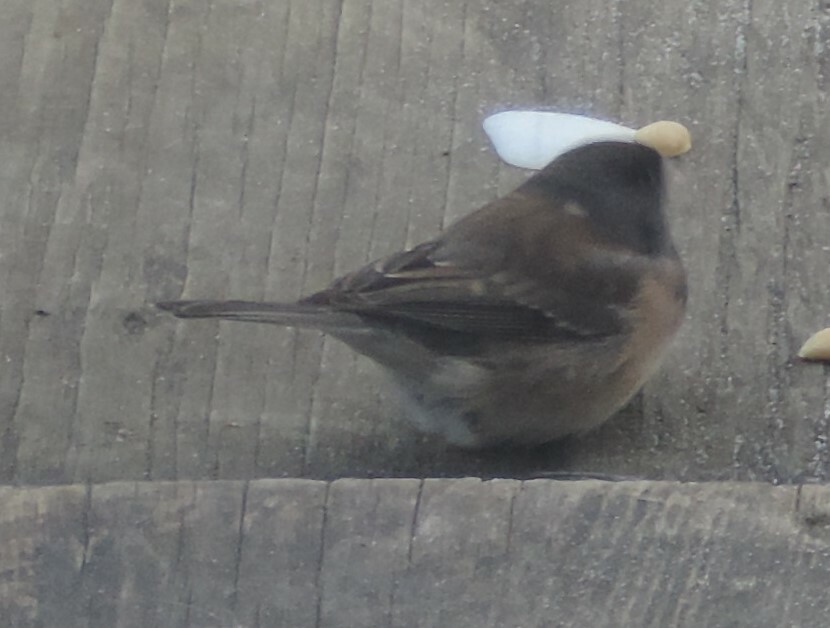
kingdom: Animalia
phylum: Chordata
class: Aves
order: Passeriformes
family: Passerellidae
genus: Junco
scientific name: Junco hyemalis
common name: Dark-eyed junco
